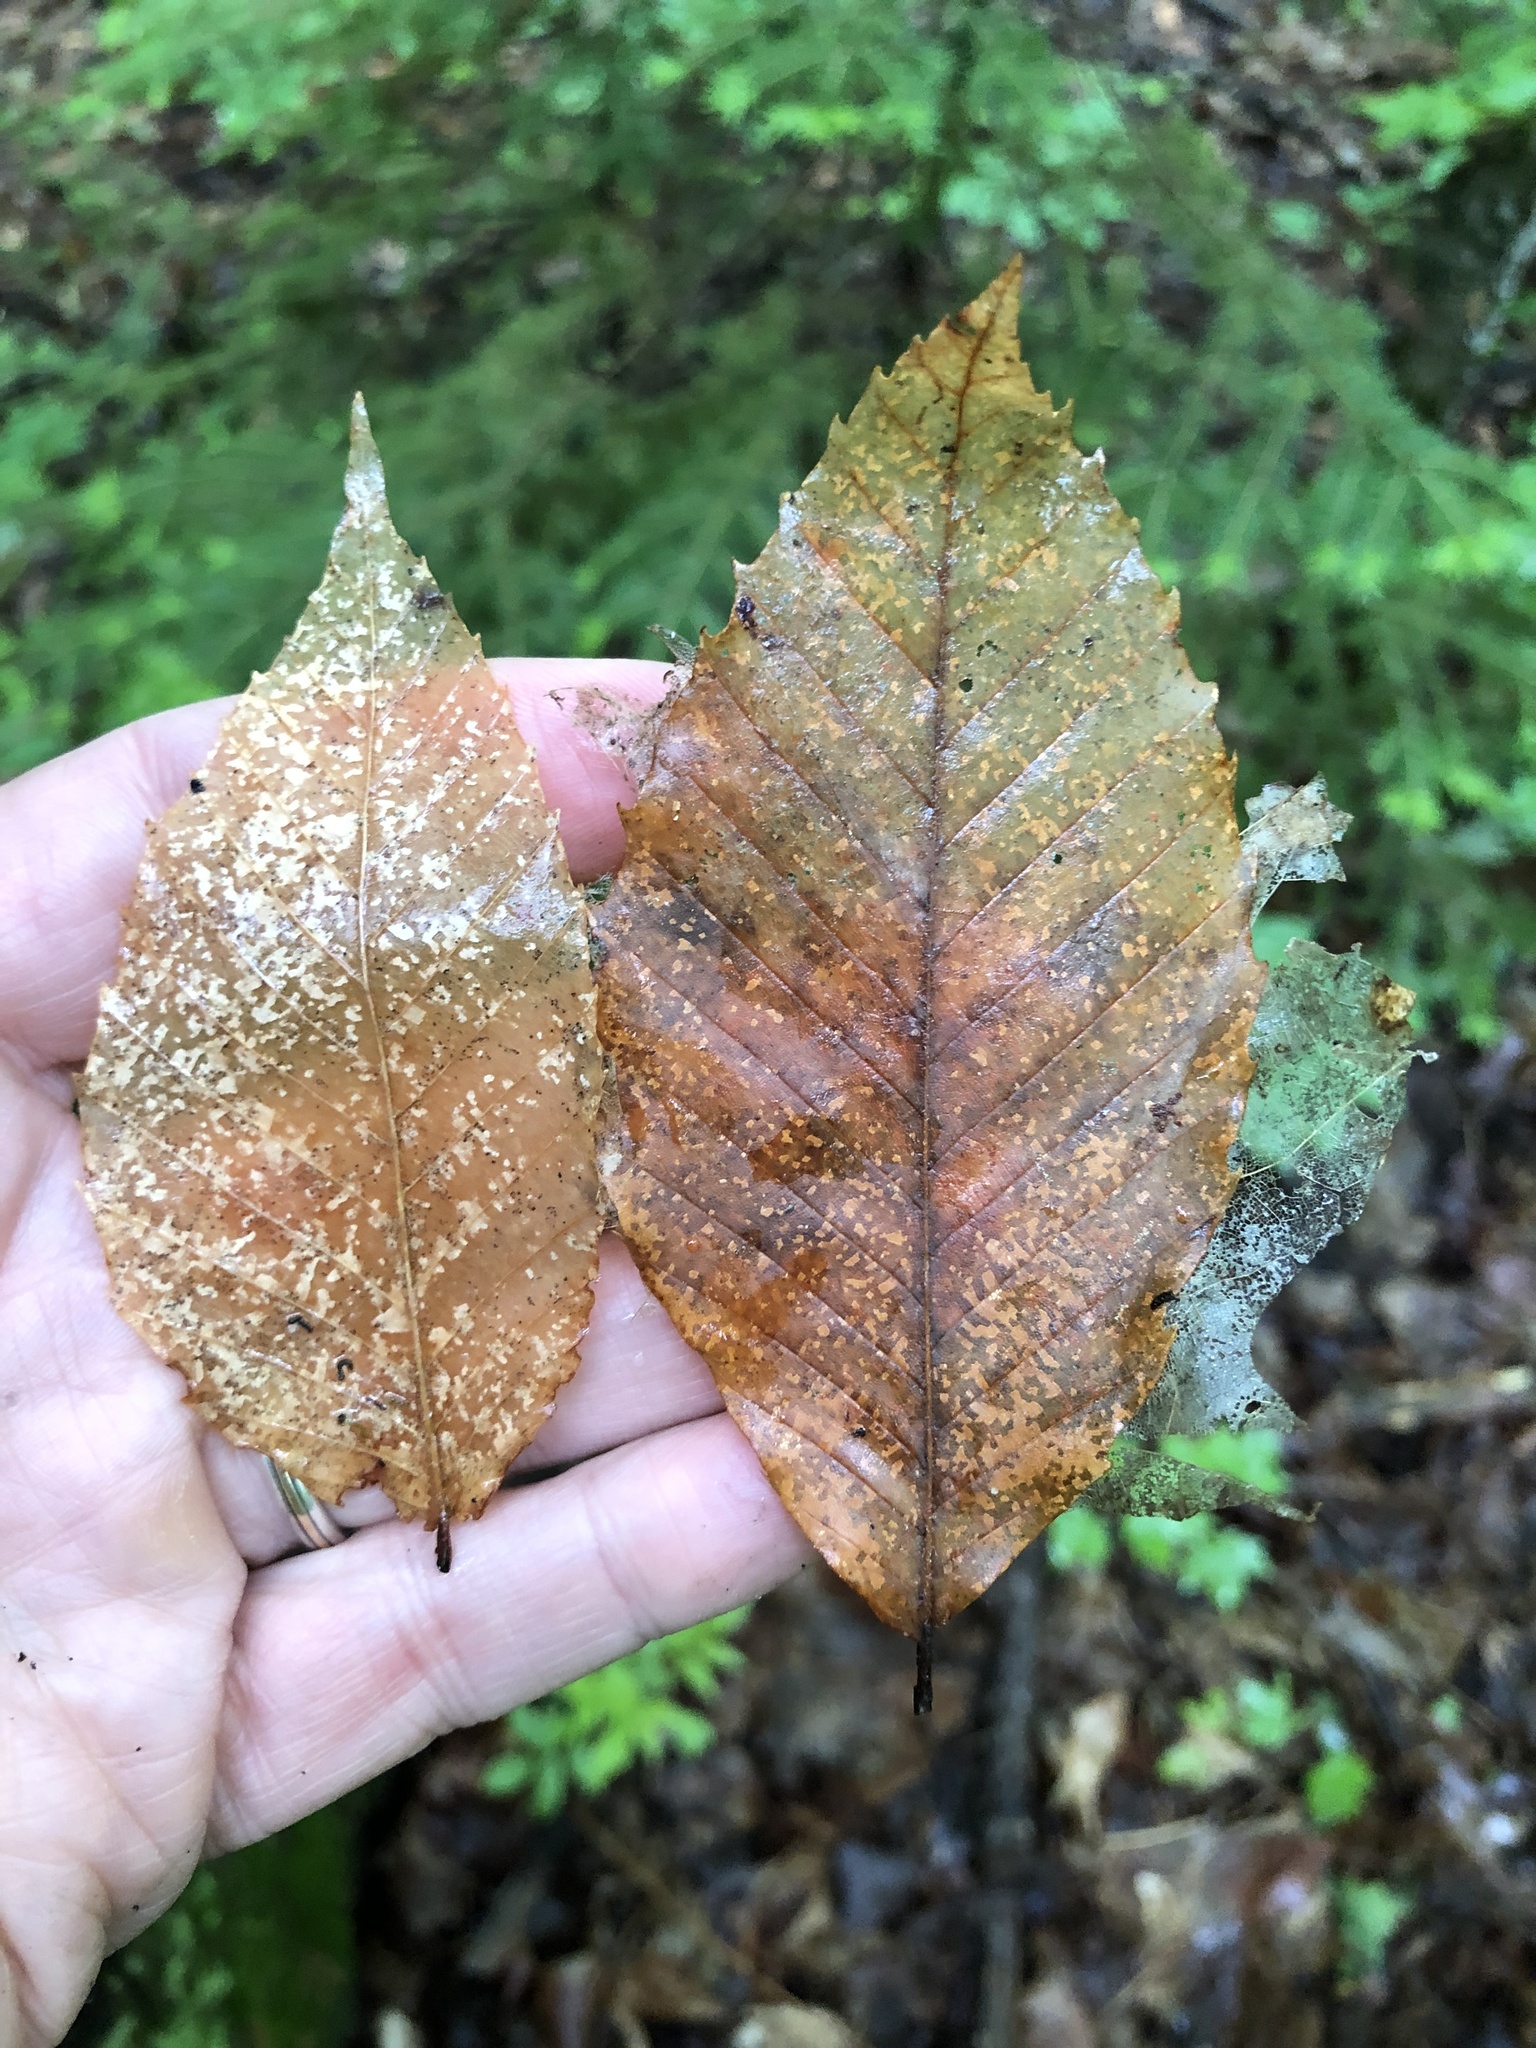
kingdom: Plantae
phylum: Tracheophyta
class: Magnoliopsida
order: Fagales
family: Fagaceae
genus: Fagus
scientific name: Fagus grandifolia
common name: American beech
